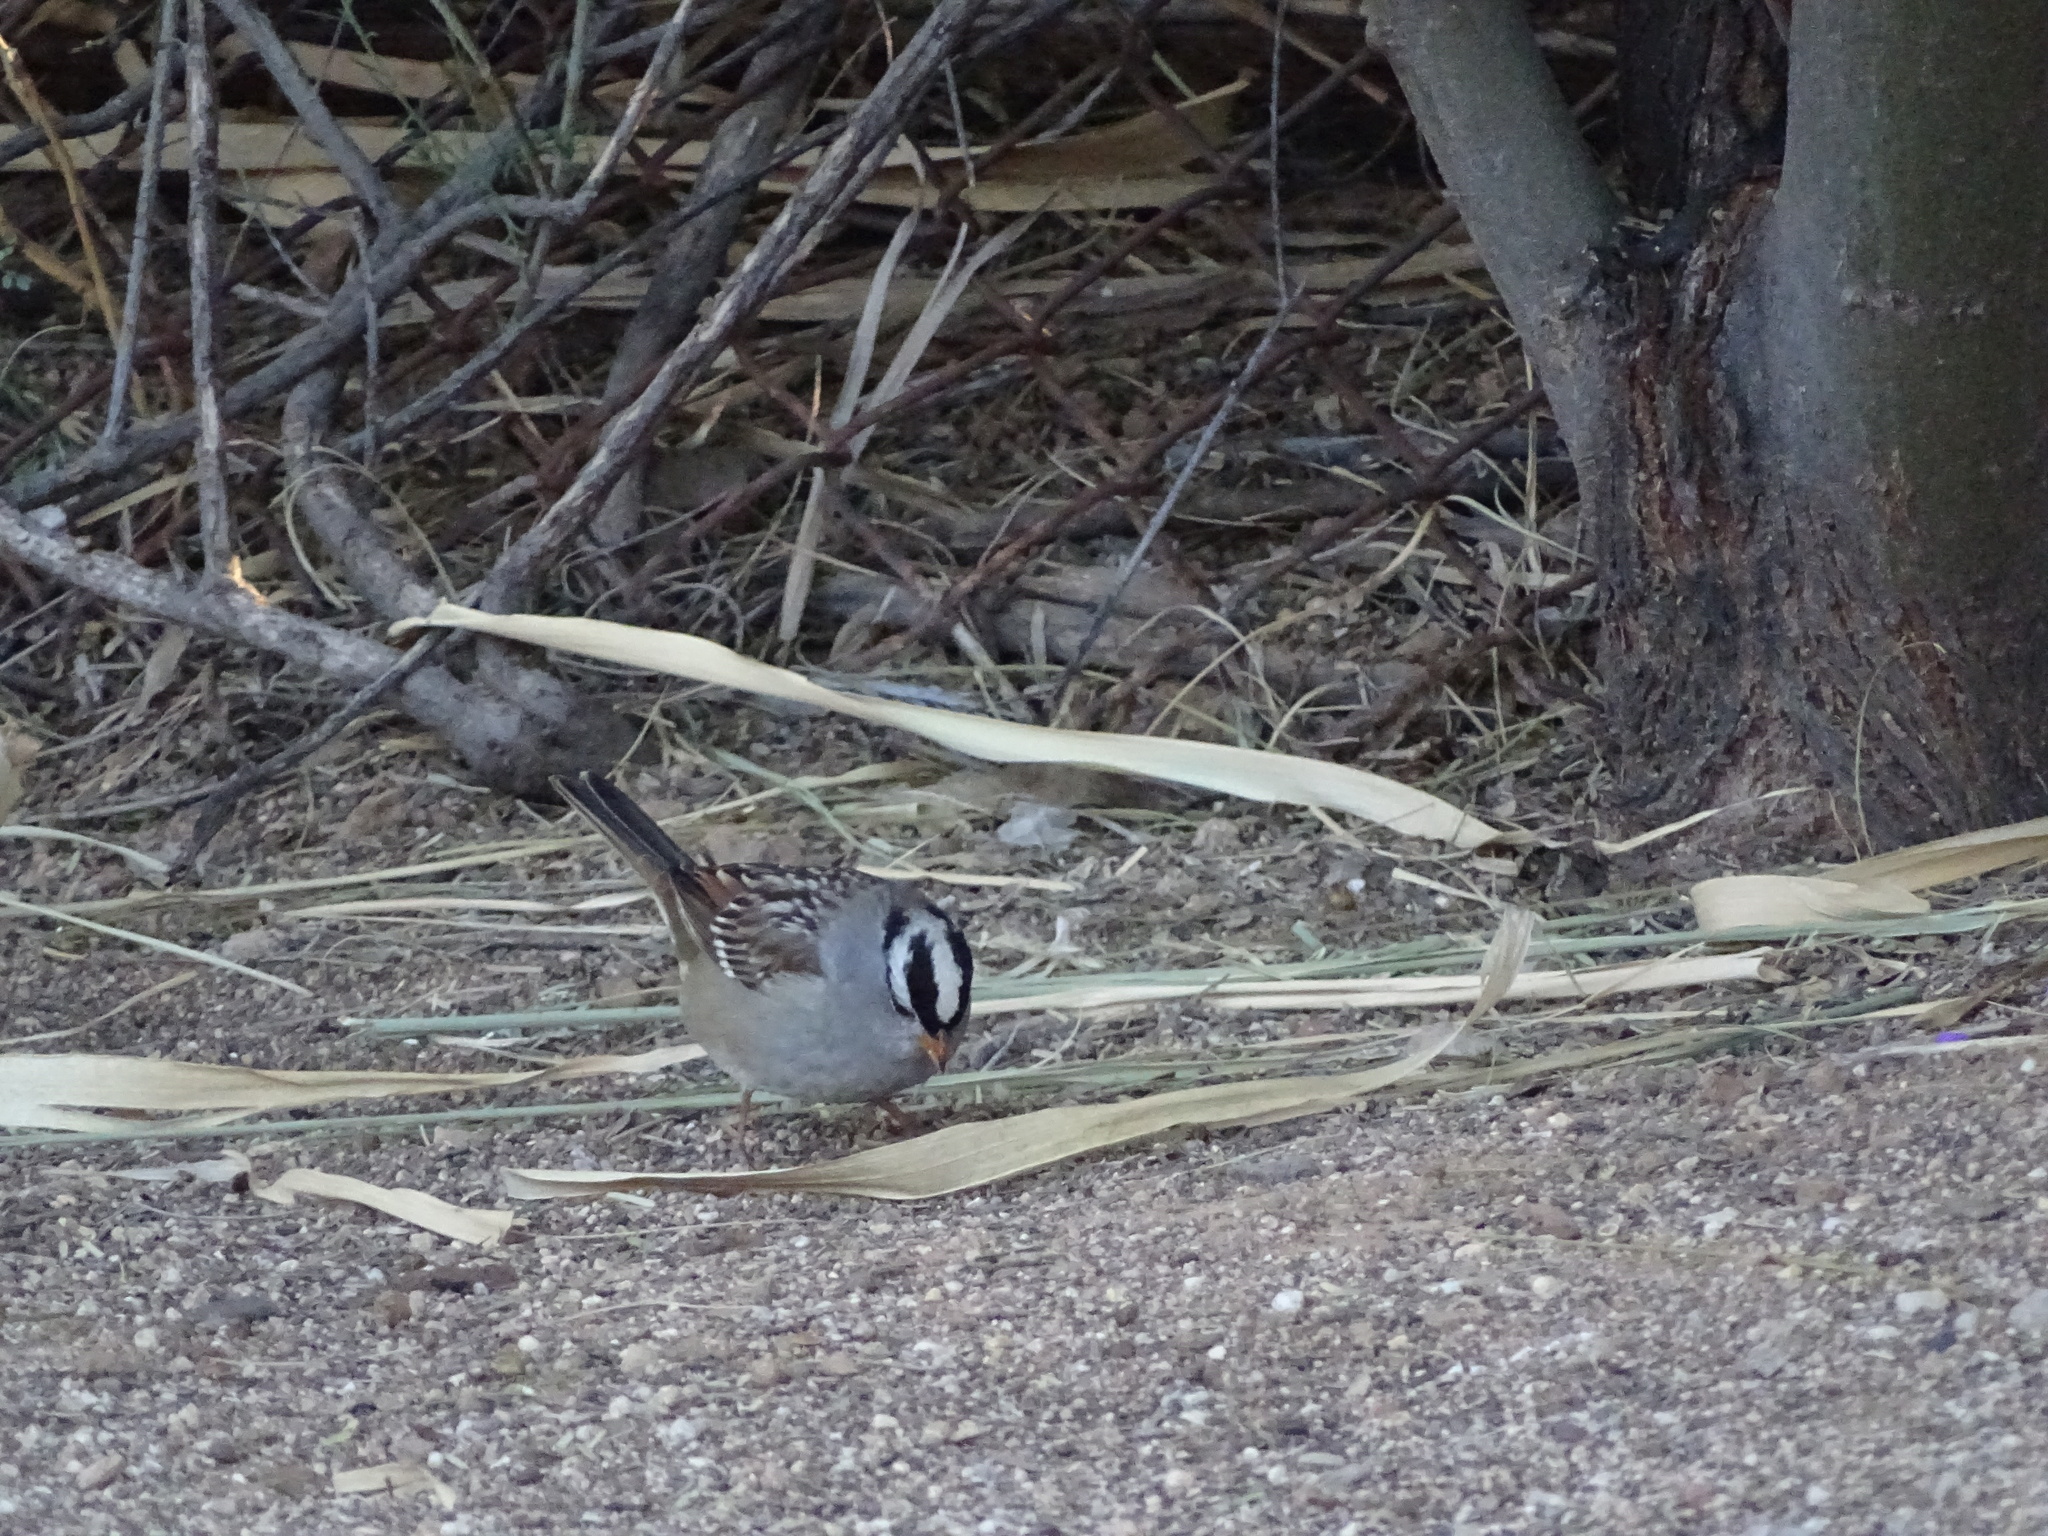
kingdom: Animalia
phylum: Chordata
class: Aves
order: Passeriformes
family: Passerellidae
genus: Zonotrichia
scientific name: Zonotrichia leucophrys
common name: White-crowned sparrow
